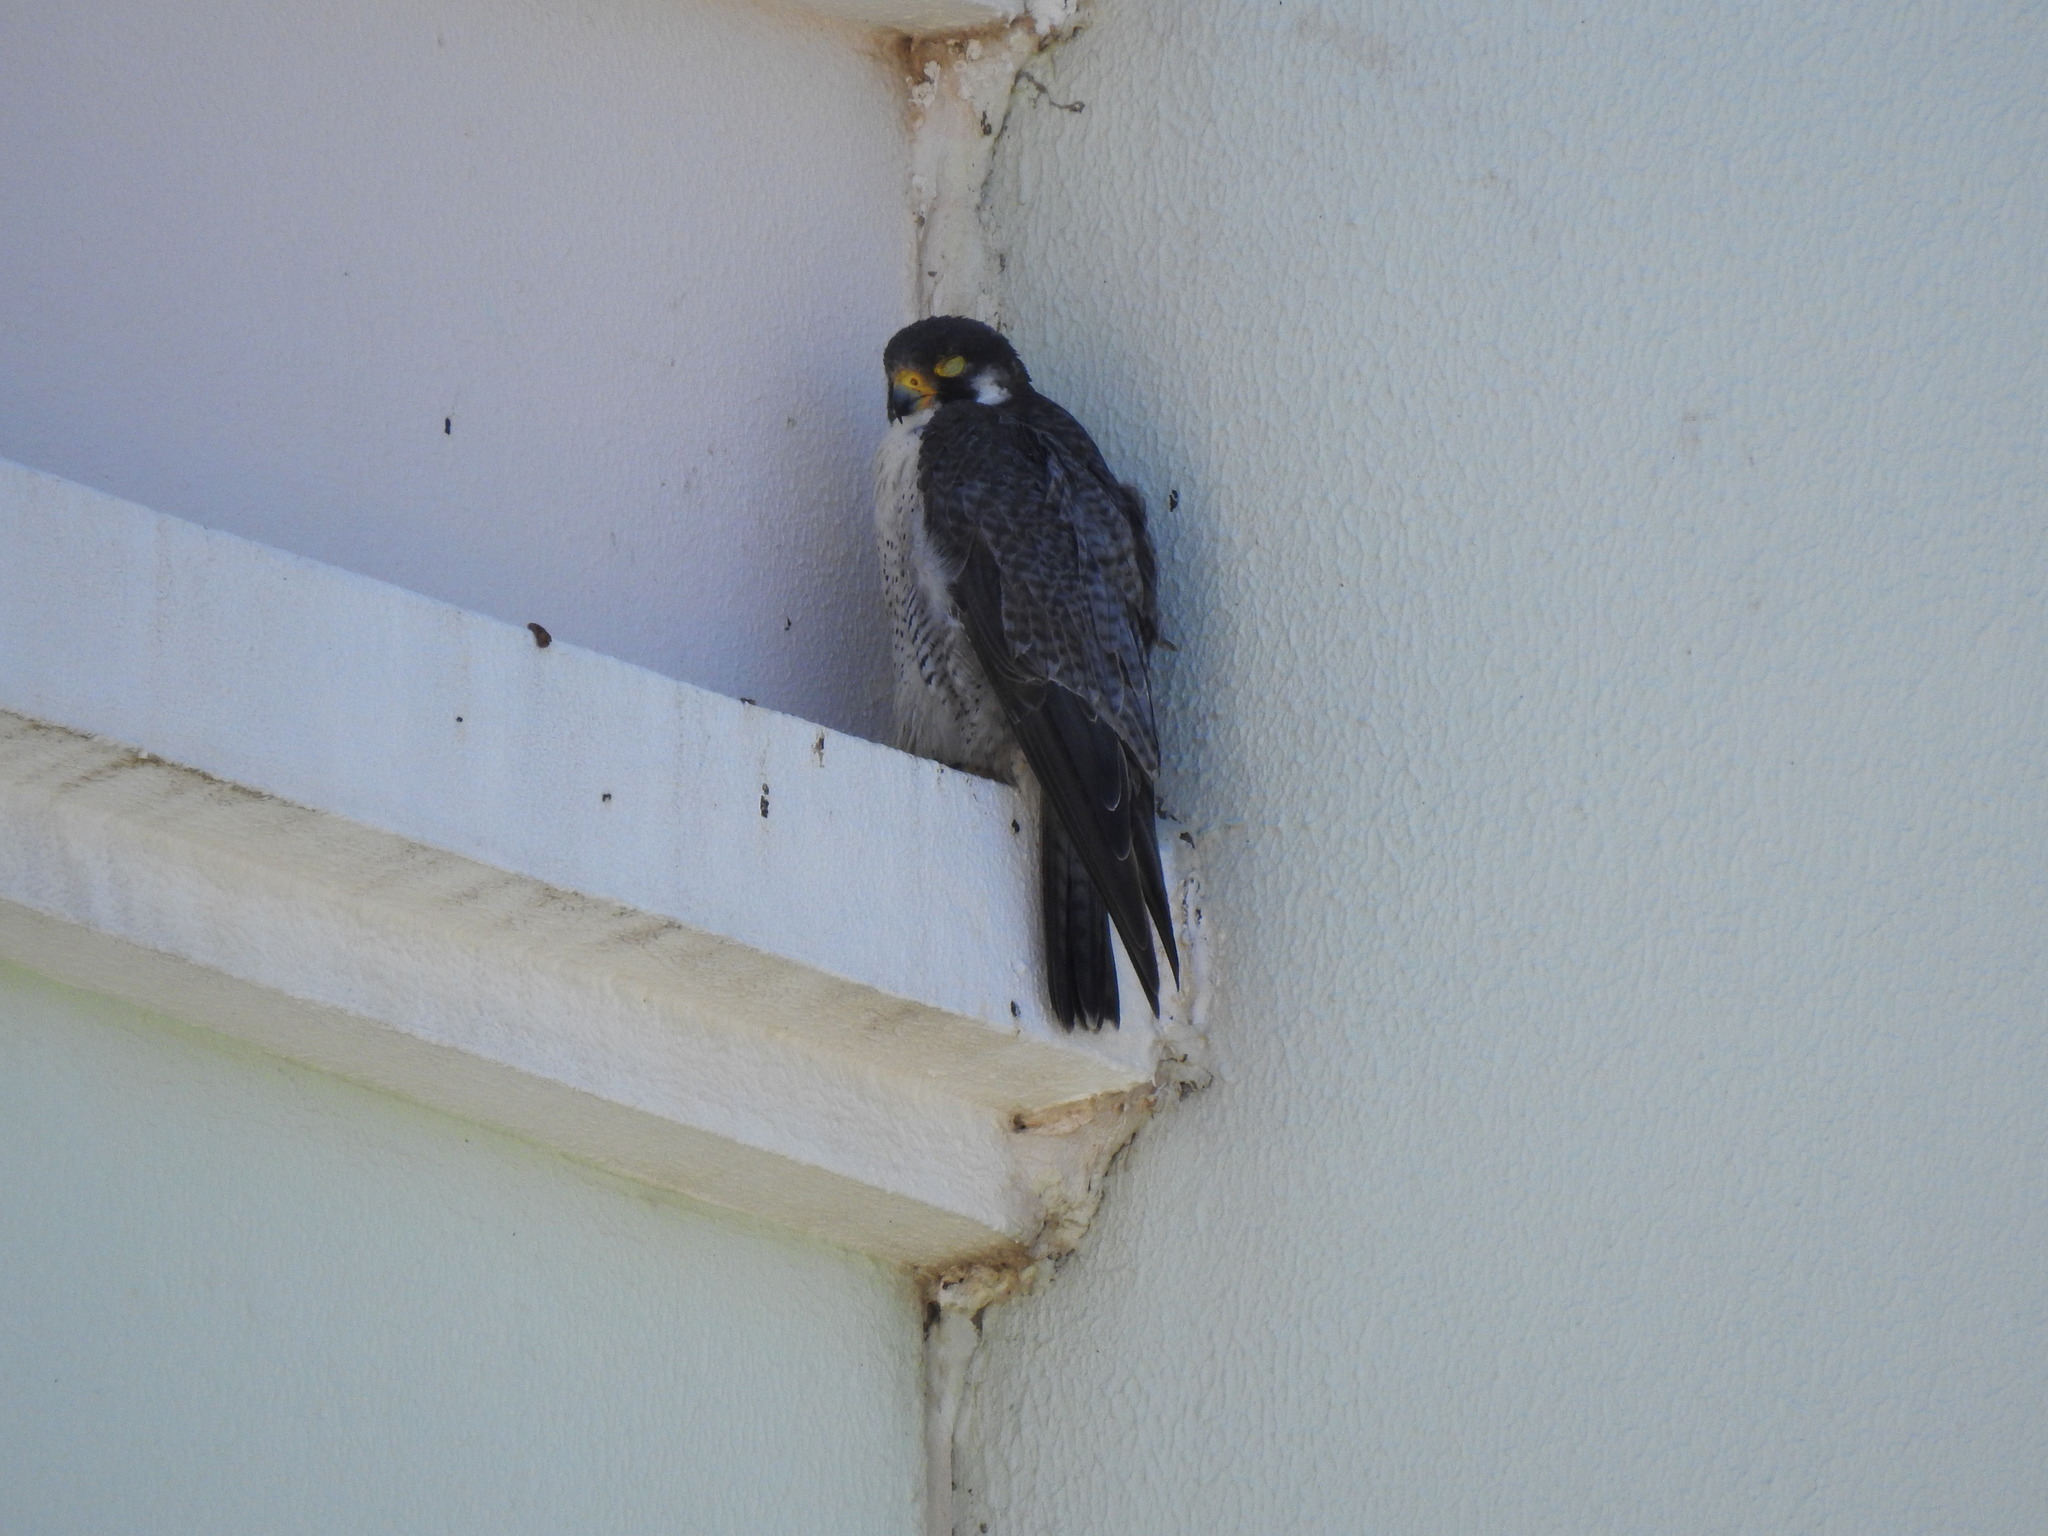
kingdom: Animalia
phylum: Chordata
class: Aves
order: Falconiformes
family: Falconidae
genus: Falco
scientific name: Falco peregrinus
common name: Peregrine falcon
